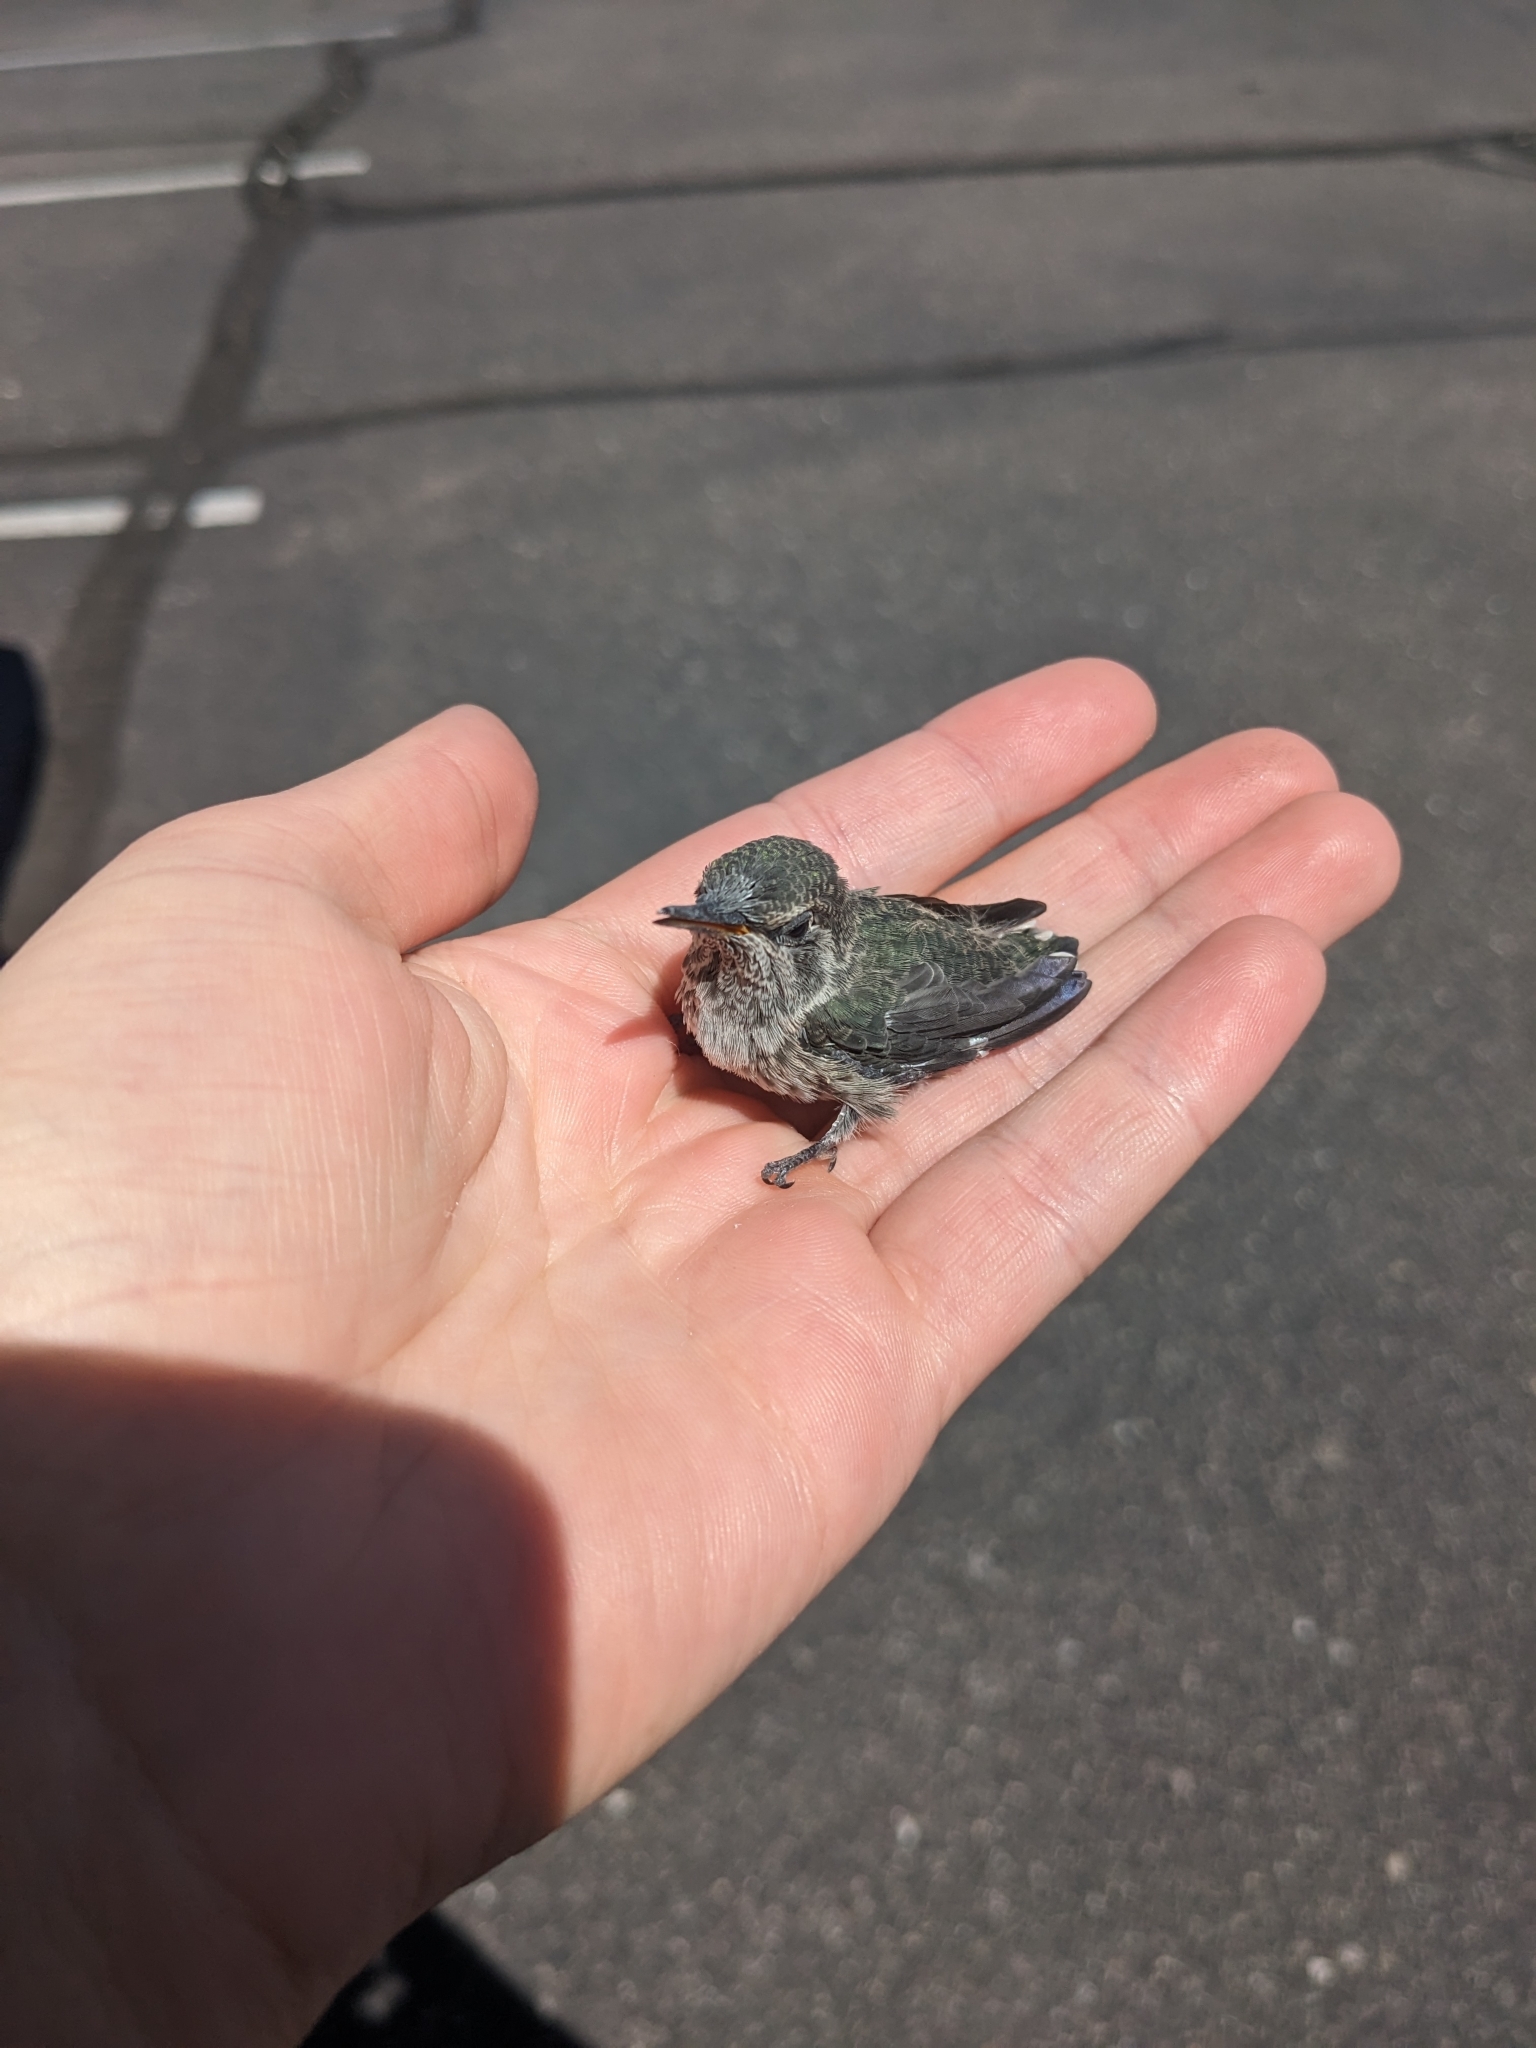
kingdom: Animalia
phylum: Chordata
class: Aves
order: Apodiformes
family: Trochilidae
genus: Calypte
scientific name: Calypte anna
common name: Anna's hummingbird
